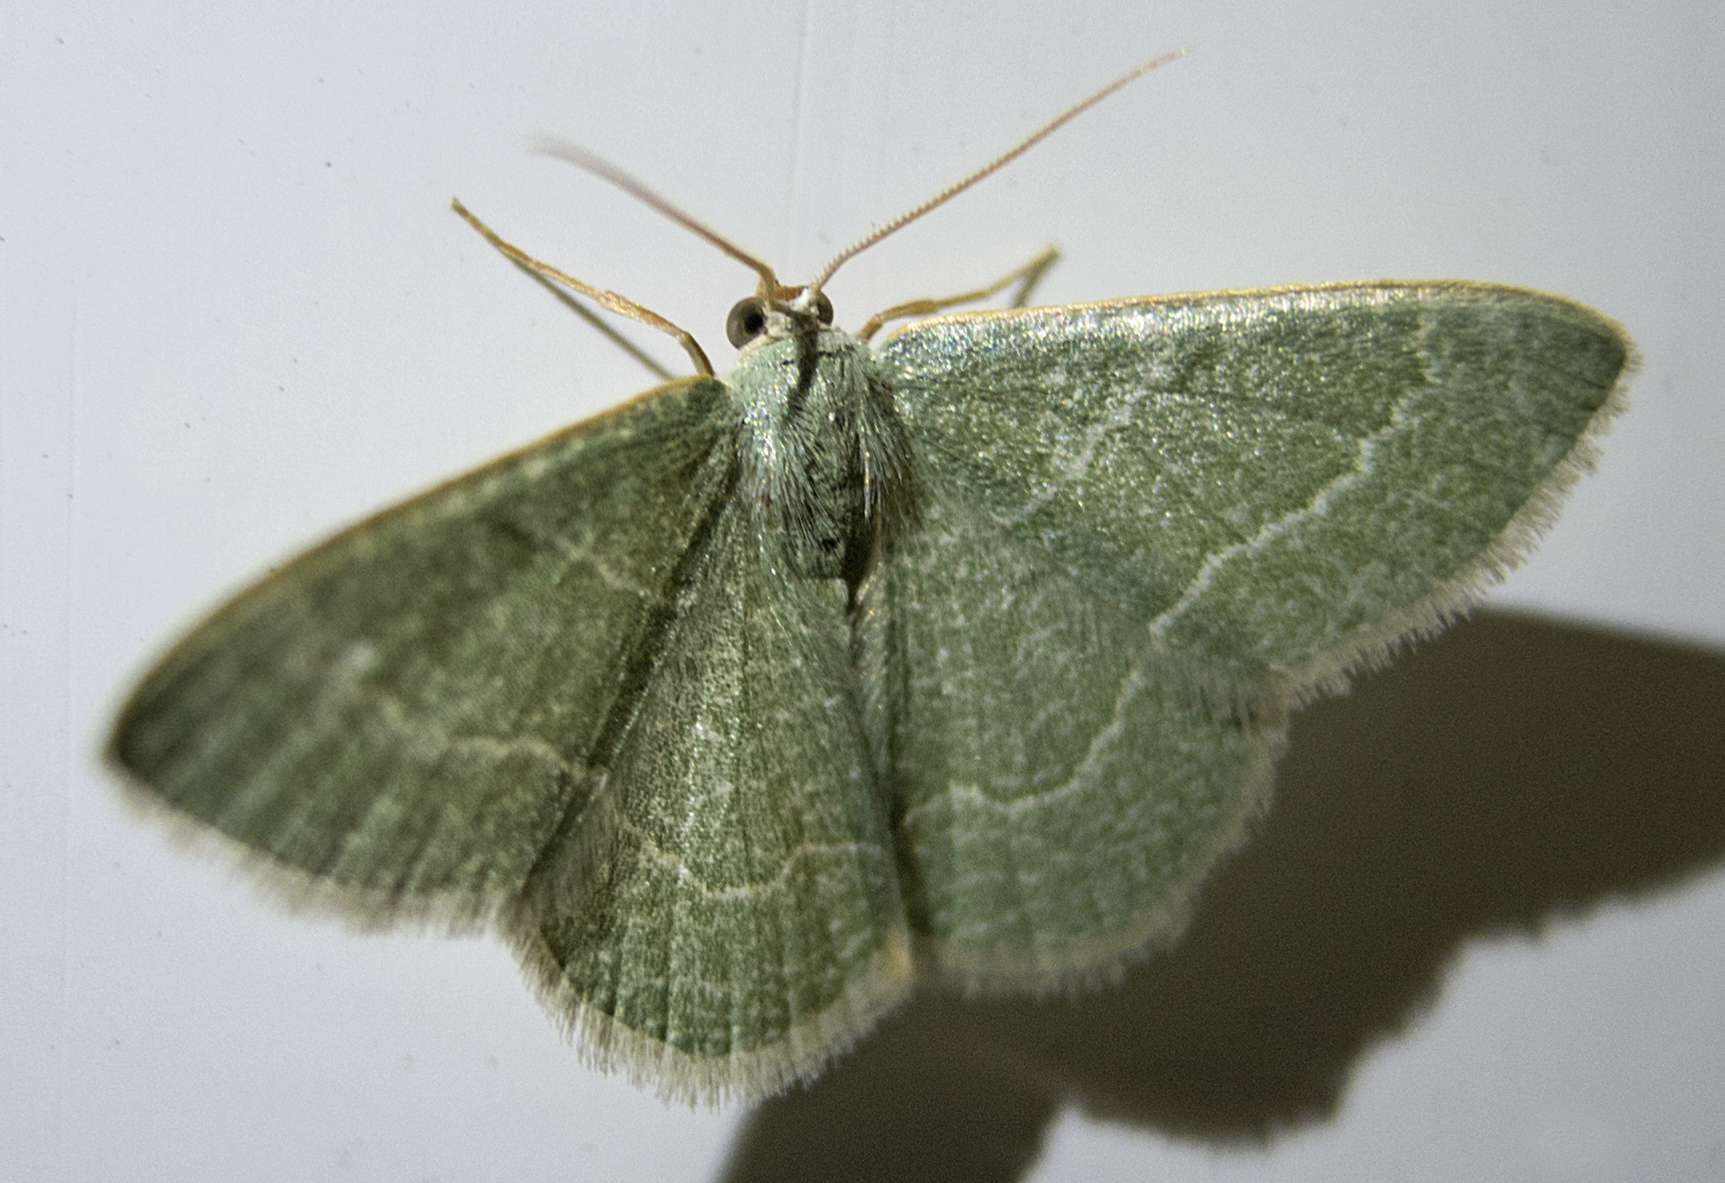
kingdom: Animalia
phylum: Arthropoda
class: Insecta
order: Lepidoptera
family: Geometridae
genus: Chlorissa
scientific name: Chlorissa etruscaria
